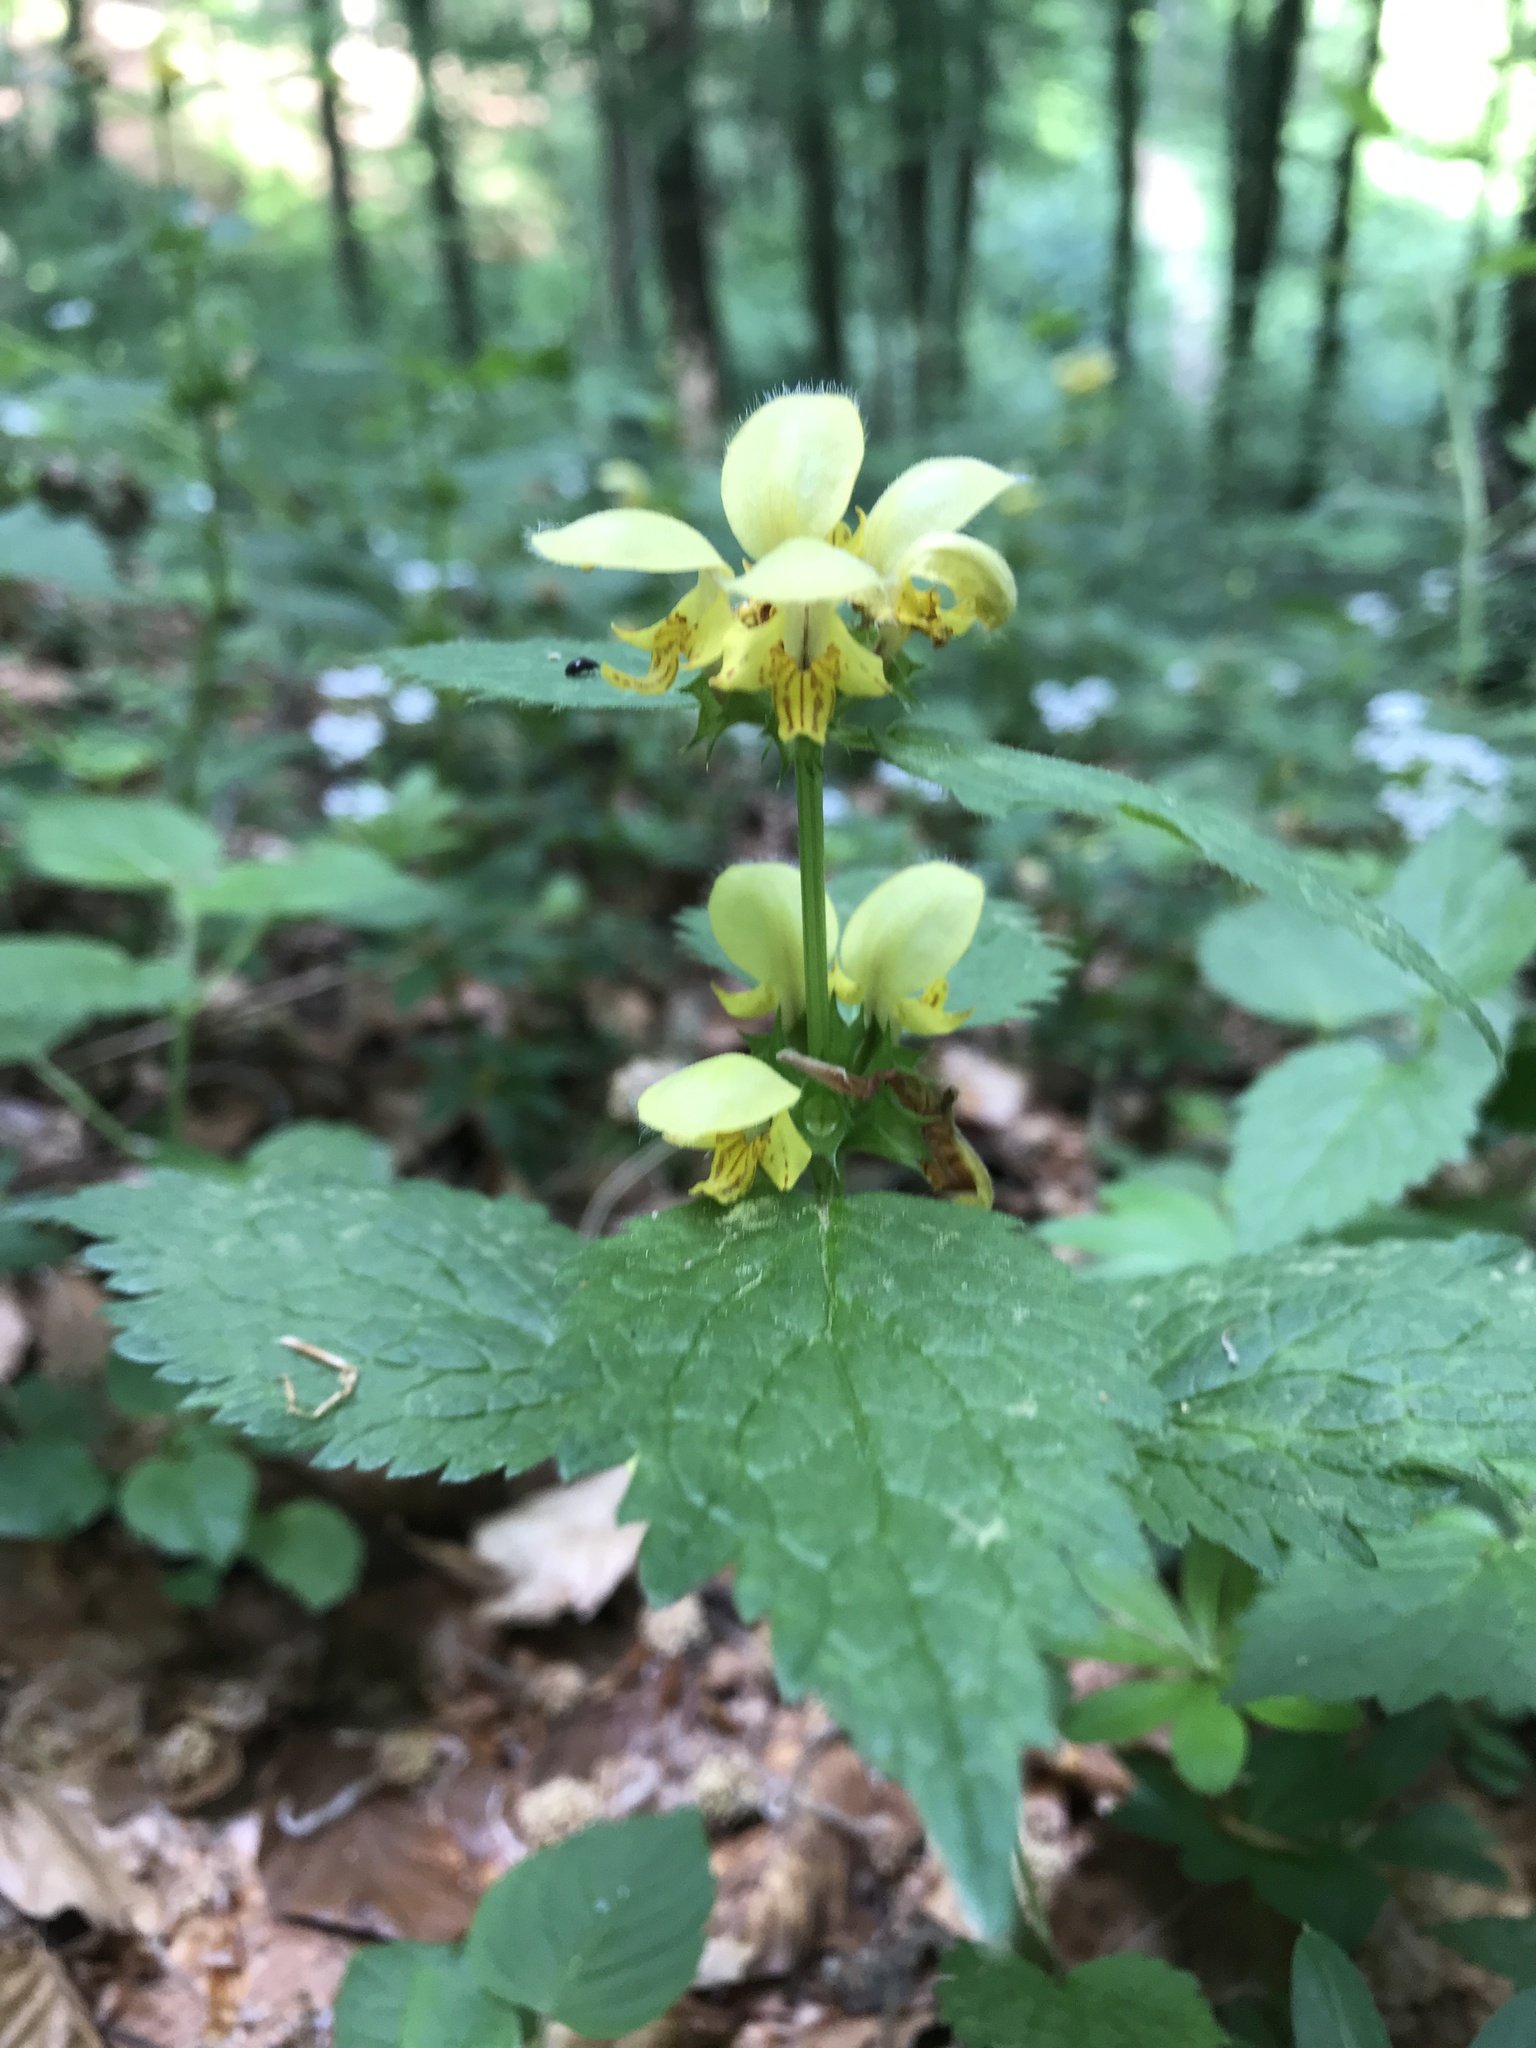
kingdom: Plantae
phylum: Tracheophyta
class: Magnoliopsida
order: Lamiales
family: Lamiaceae
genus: Lamium
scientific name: Lamium galeobdolon
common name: Yellow archangel
